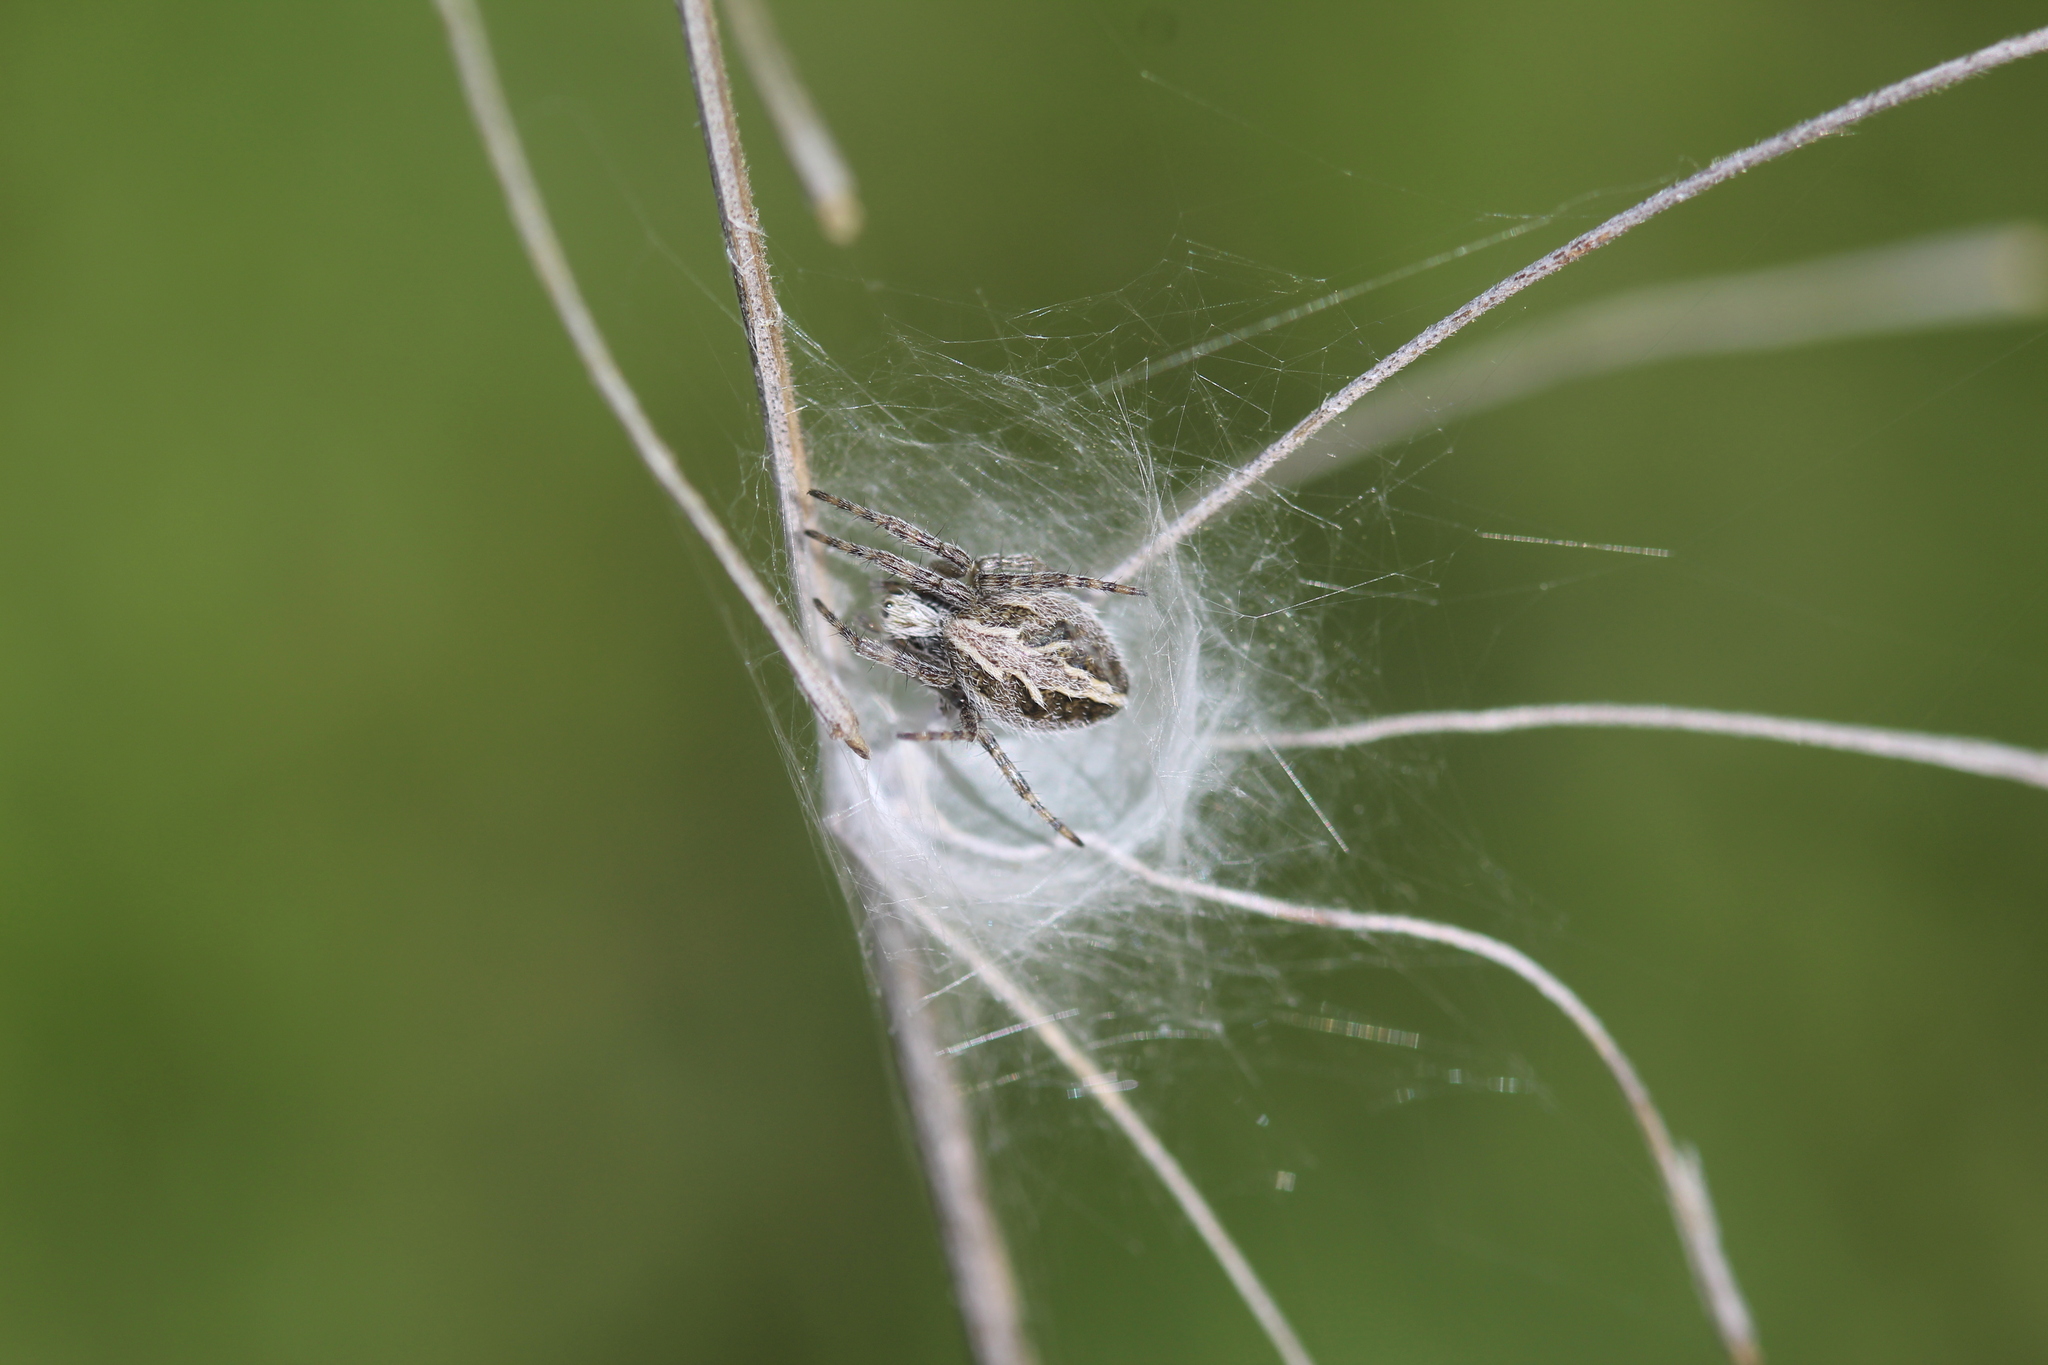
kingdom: Animalia
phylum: Arthropoda
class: Arachnida
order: Araneae
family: Araneidae
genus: Aculepeira
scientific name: Aculepeira packardi
